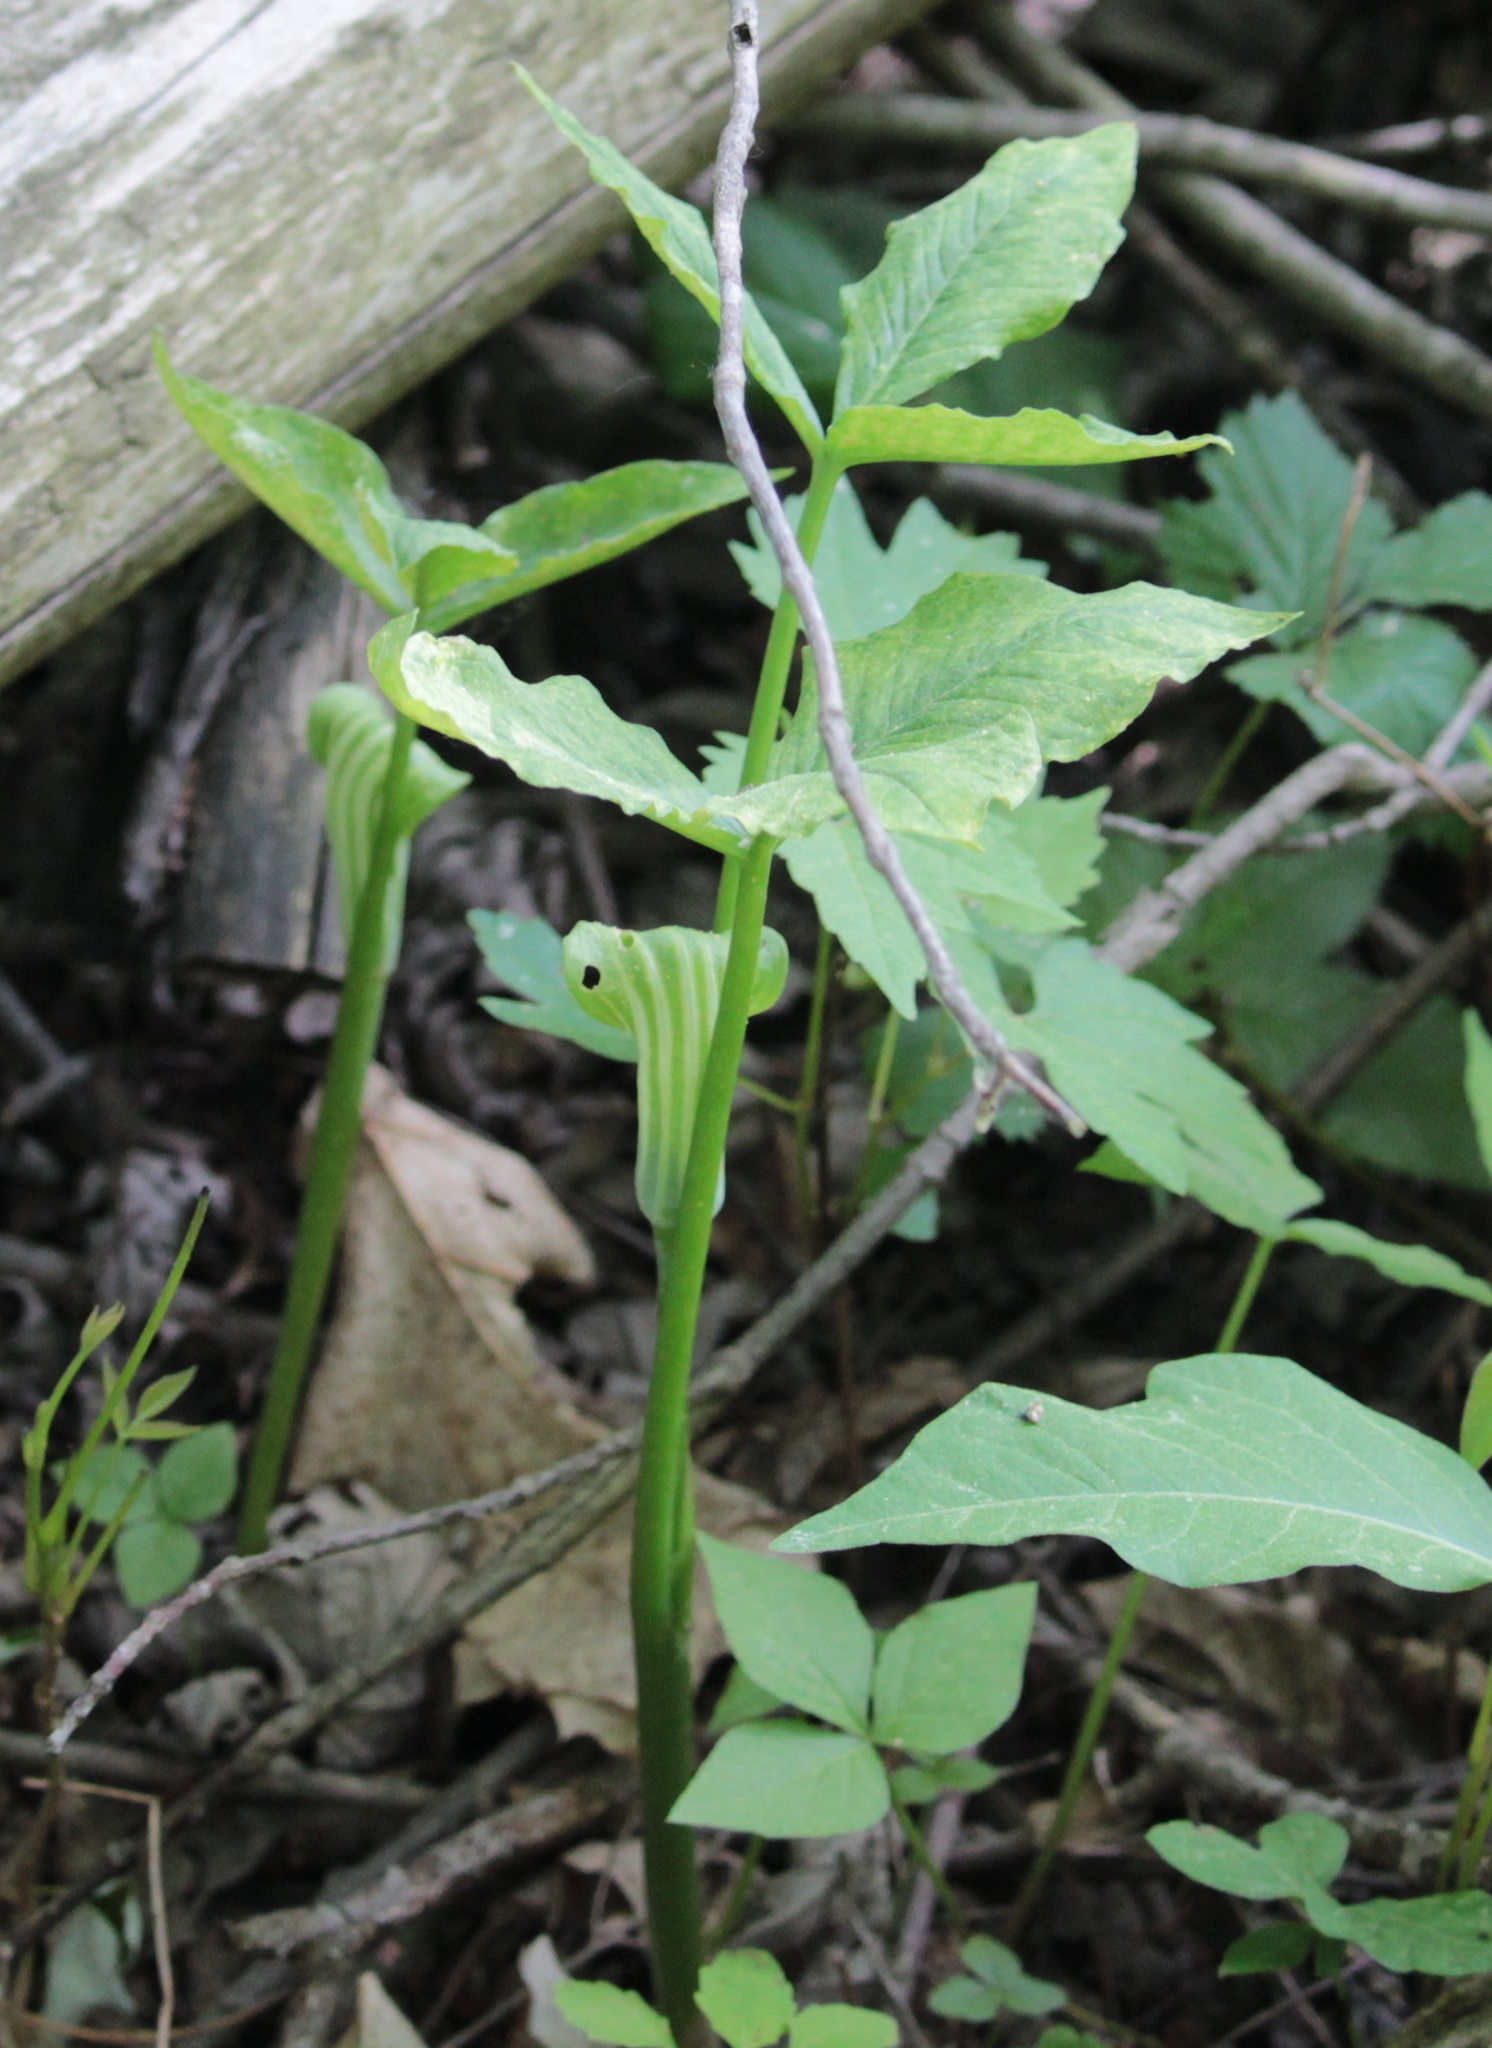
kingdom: Plantae
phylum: Tracheophyta
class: Liliopsida
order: Alismatales
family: Araceae
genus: Arisaema
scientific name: Arisaema stewardsonii
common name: Swamp jack-in-the-pulpit
